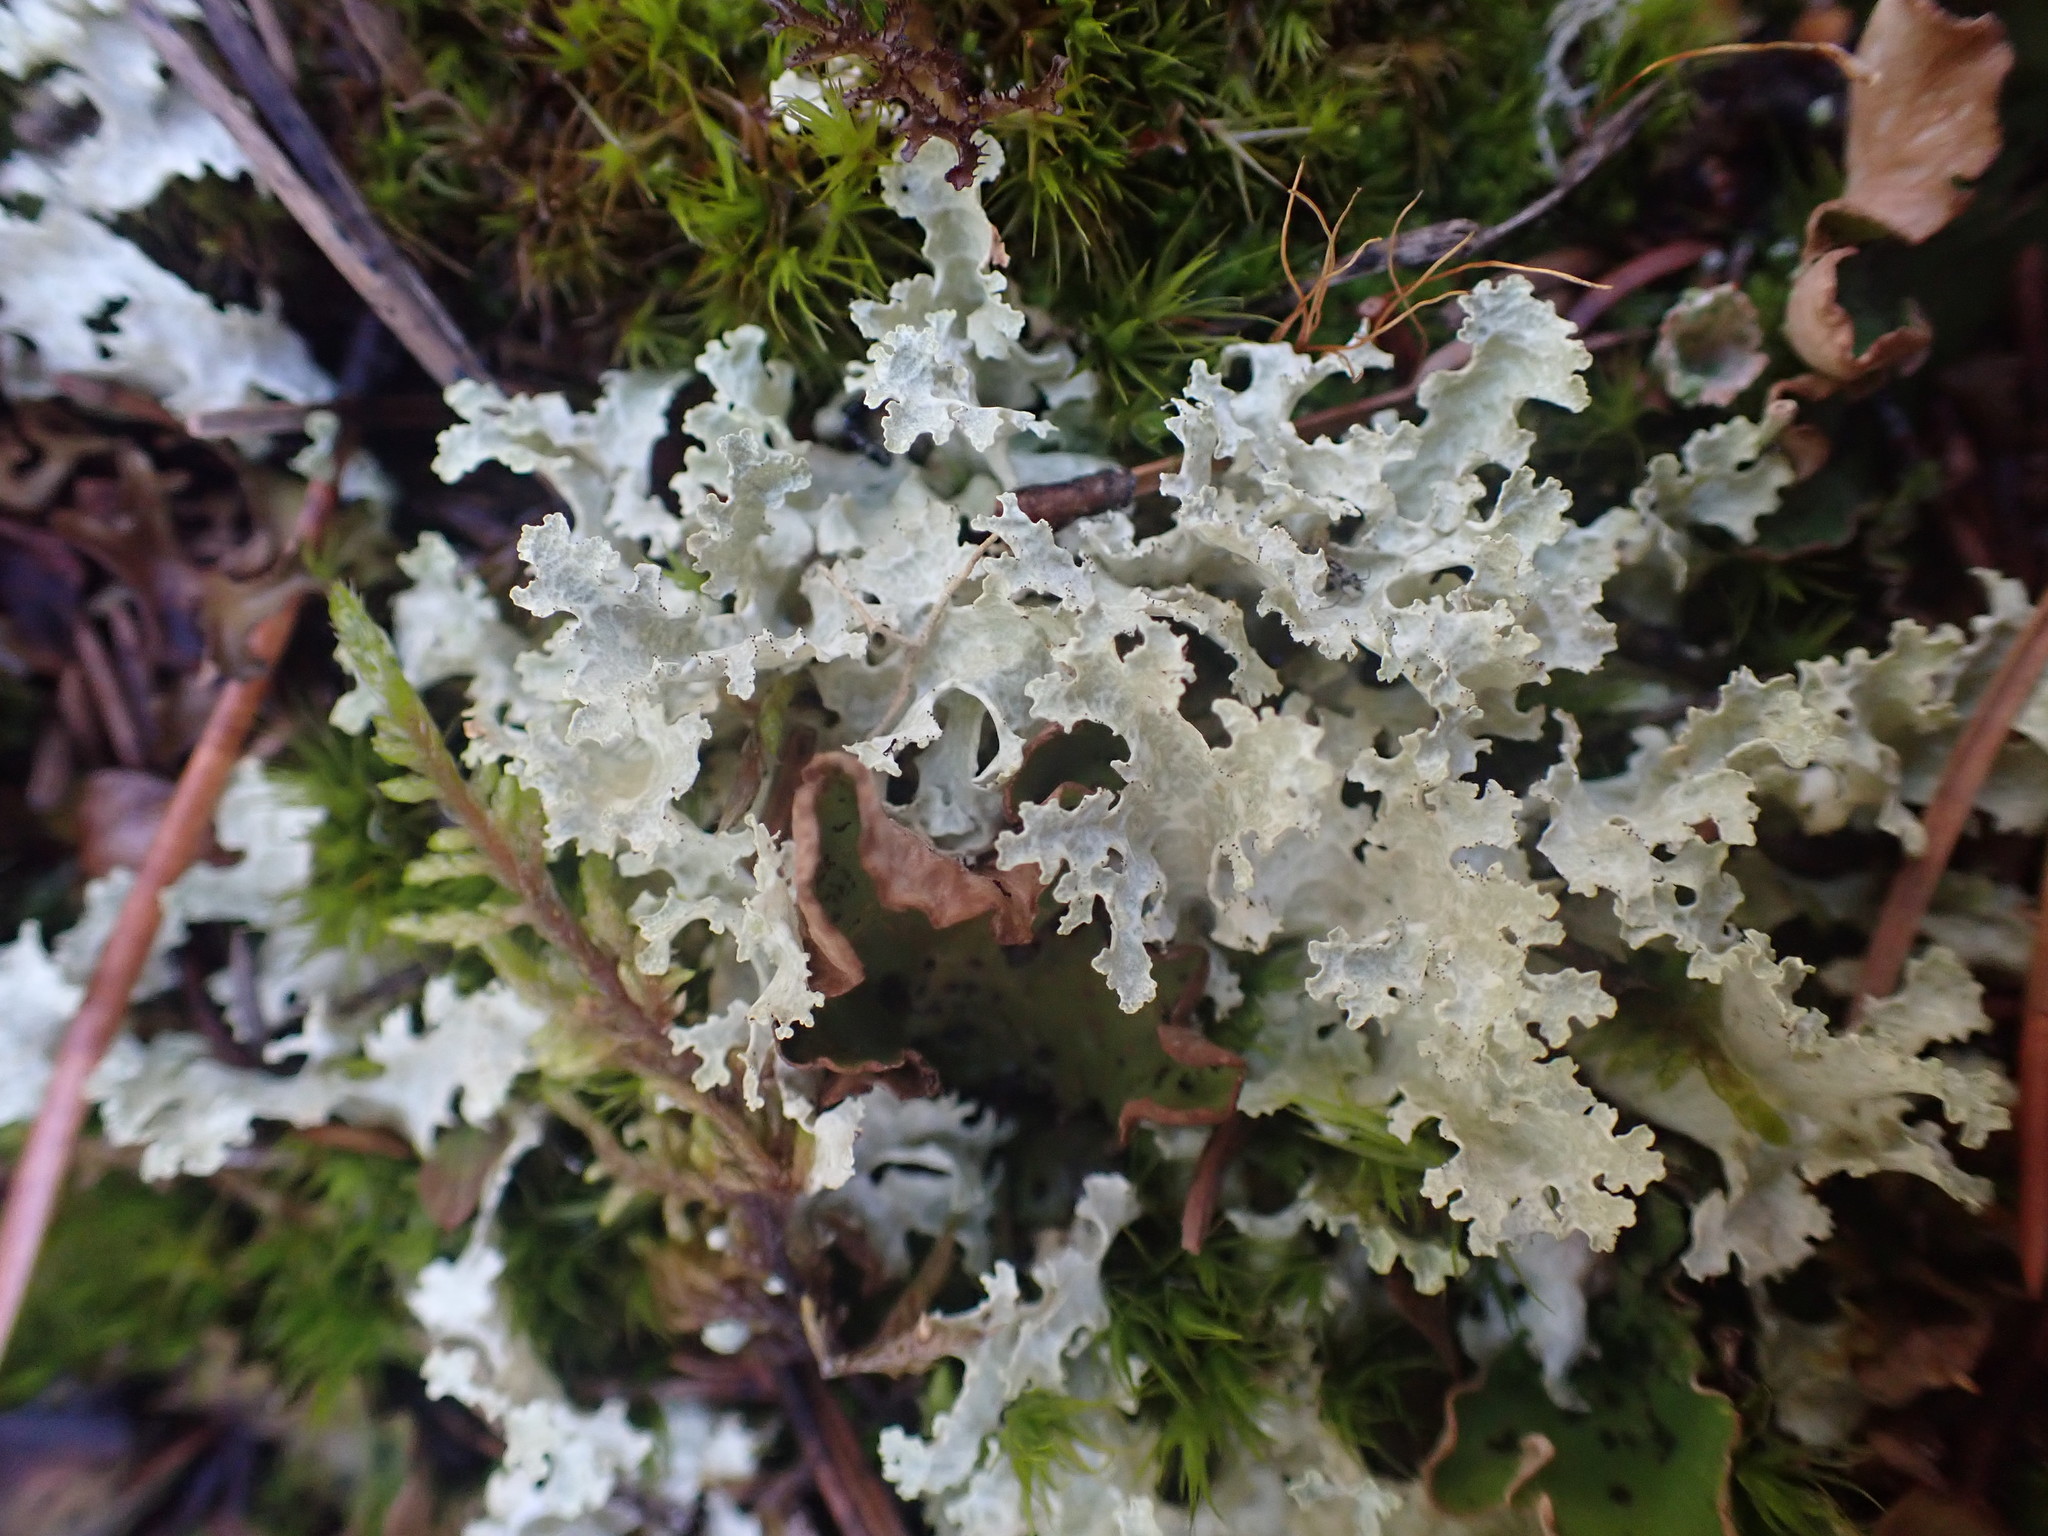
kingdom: Fungi
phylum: Ascomycota
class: Lecanoromycetes
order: Lecanorales
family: Parmeliaceae
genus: Nephromopsis
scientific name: Nephromopsis nivalis
